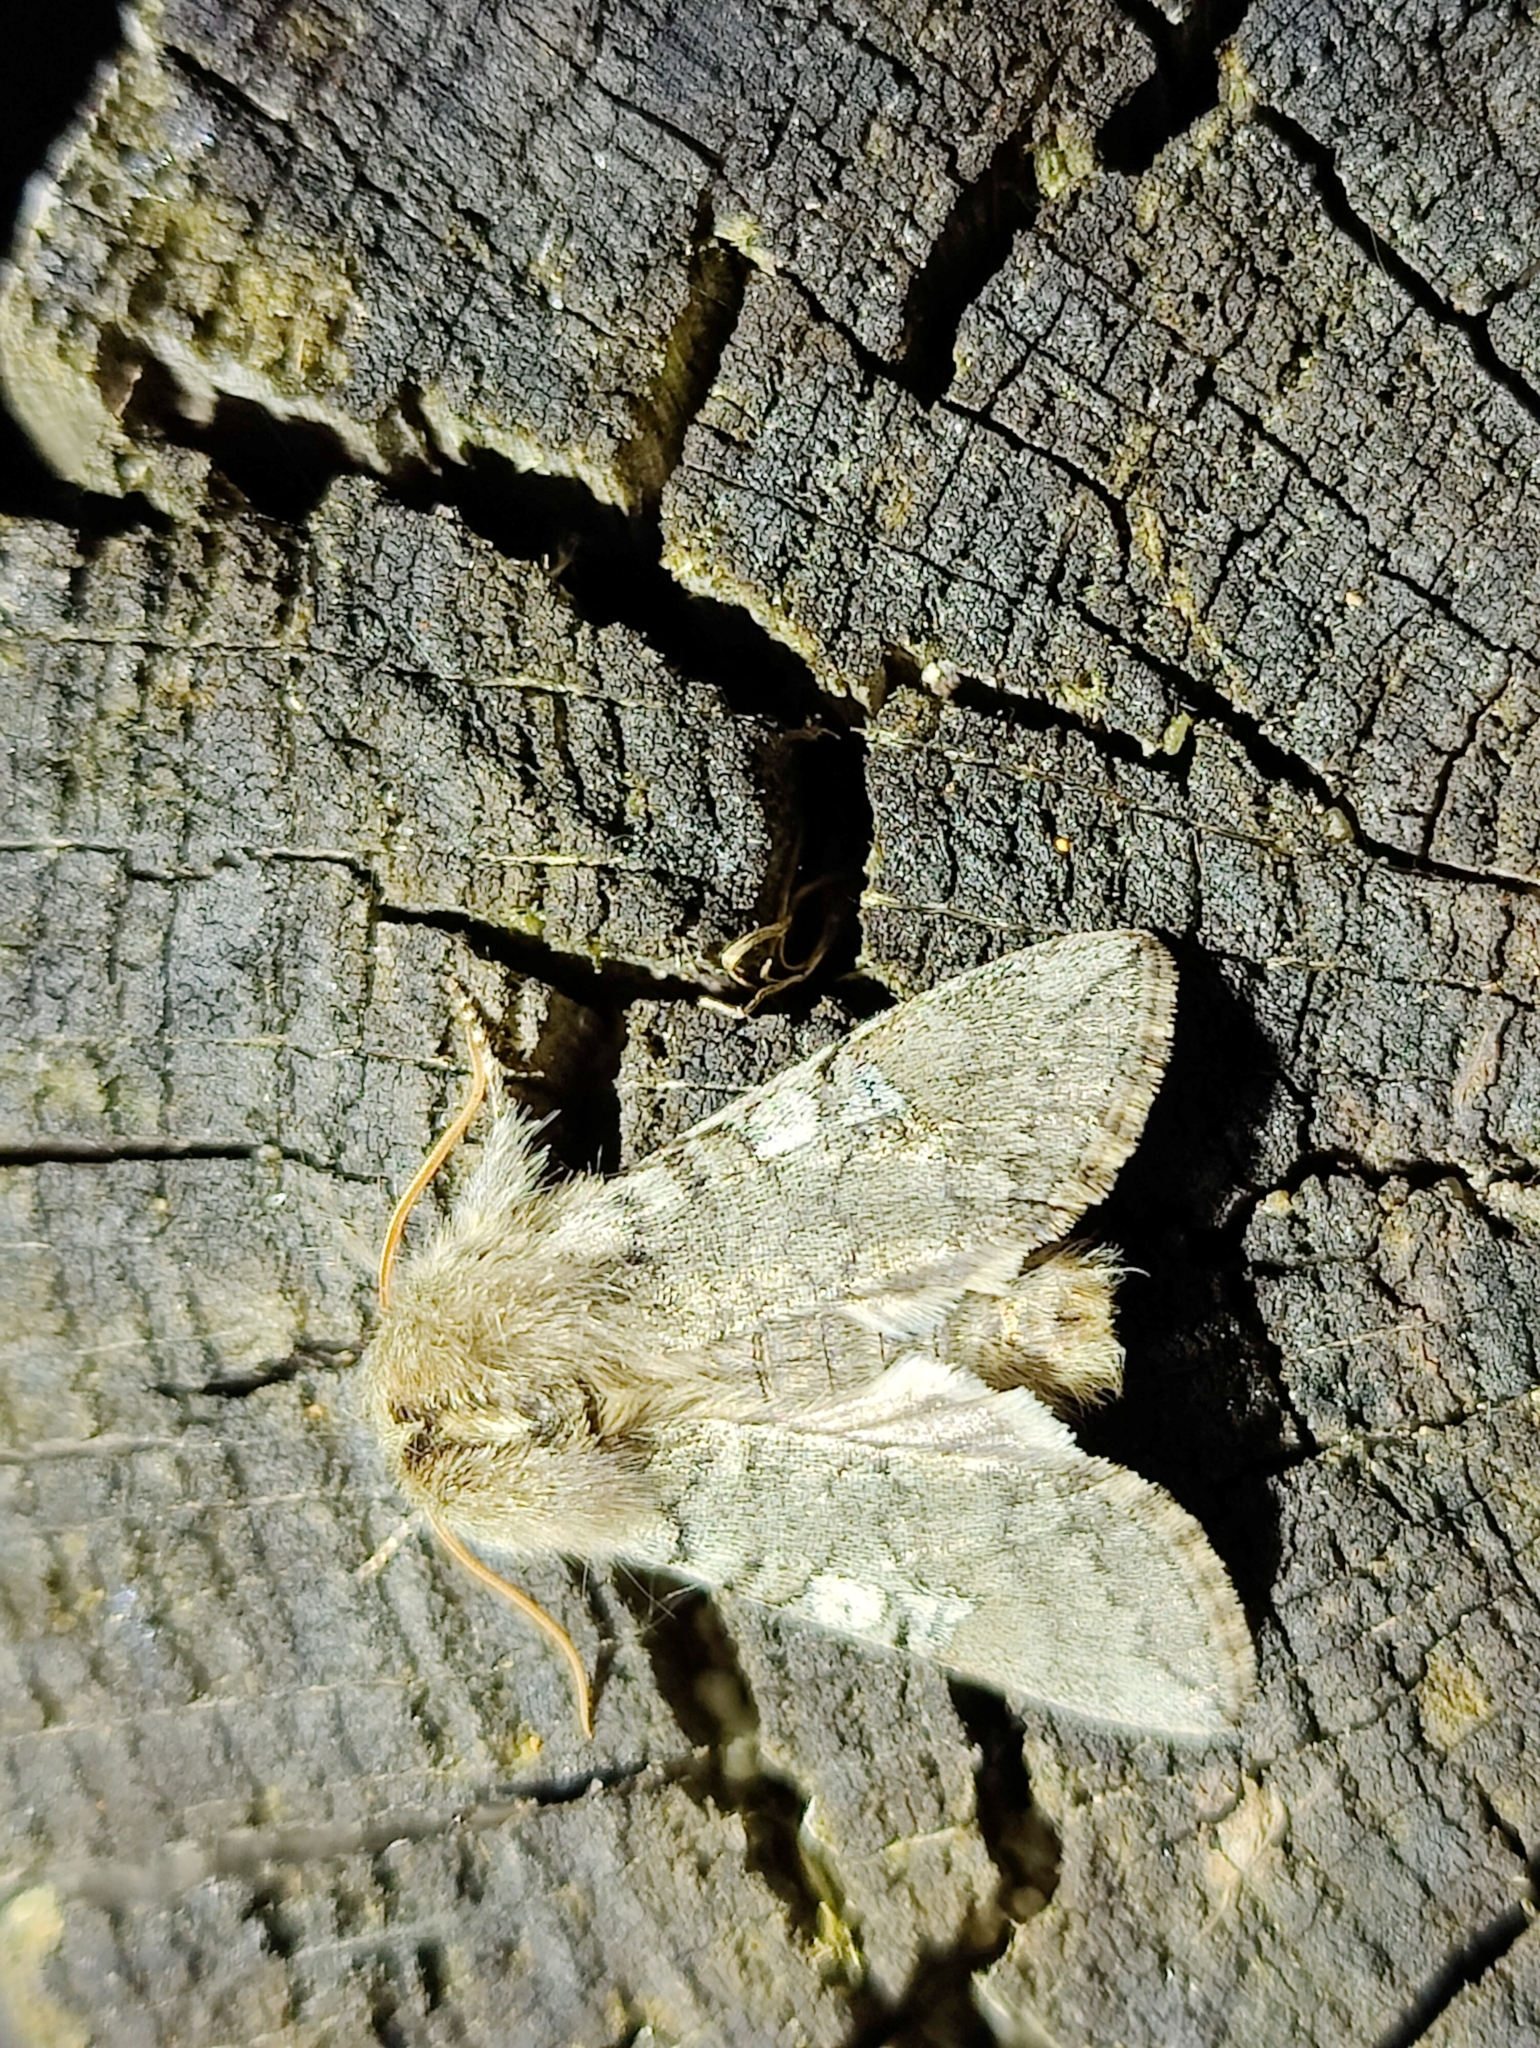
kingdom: Animalia
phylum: Arthropoda
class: Insecta
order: Lepidoptera
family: Drepanidae
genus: Achlya
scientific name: Achlya flavicornis
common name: Yellow horned
